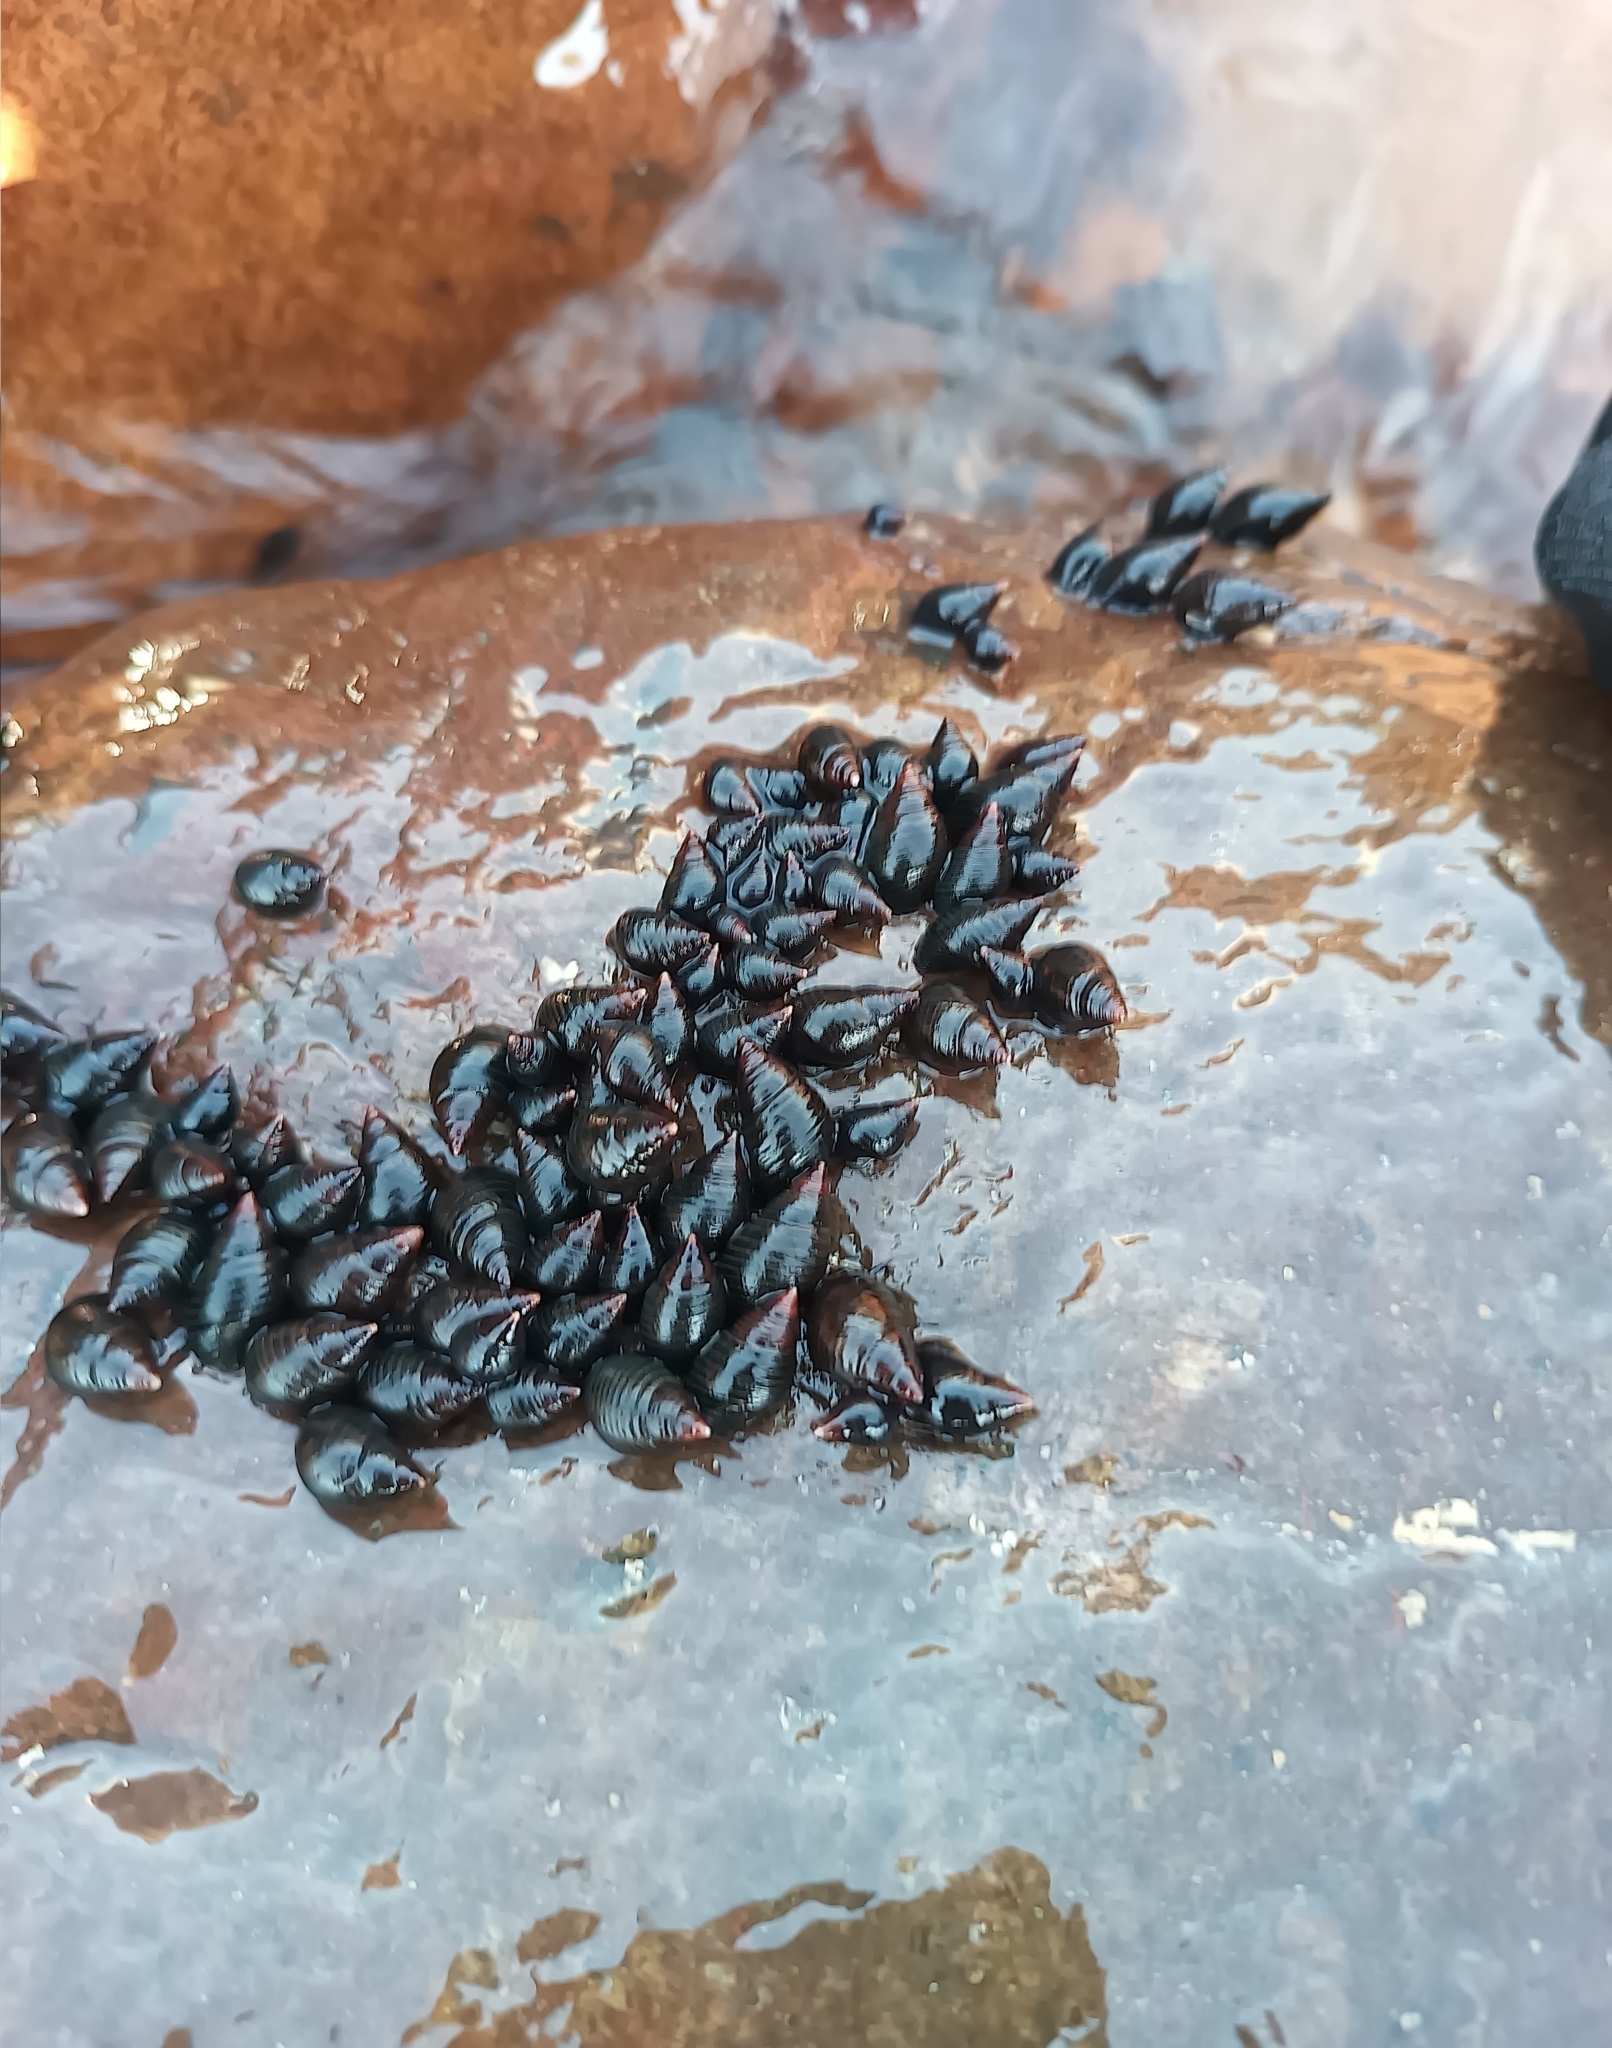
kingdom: Animalia
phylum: Mollusca
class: Gastropoda
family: Planaxidae
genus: Supplanaxis
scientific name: Supplanaxis obsoletus
